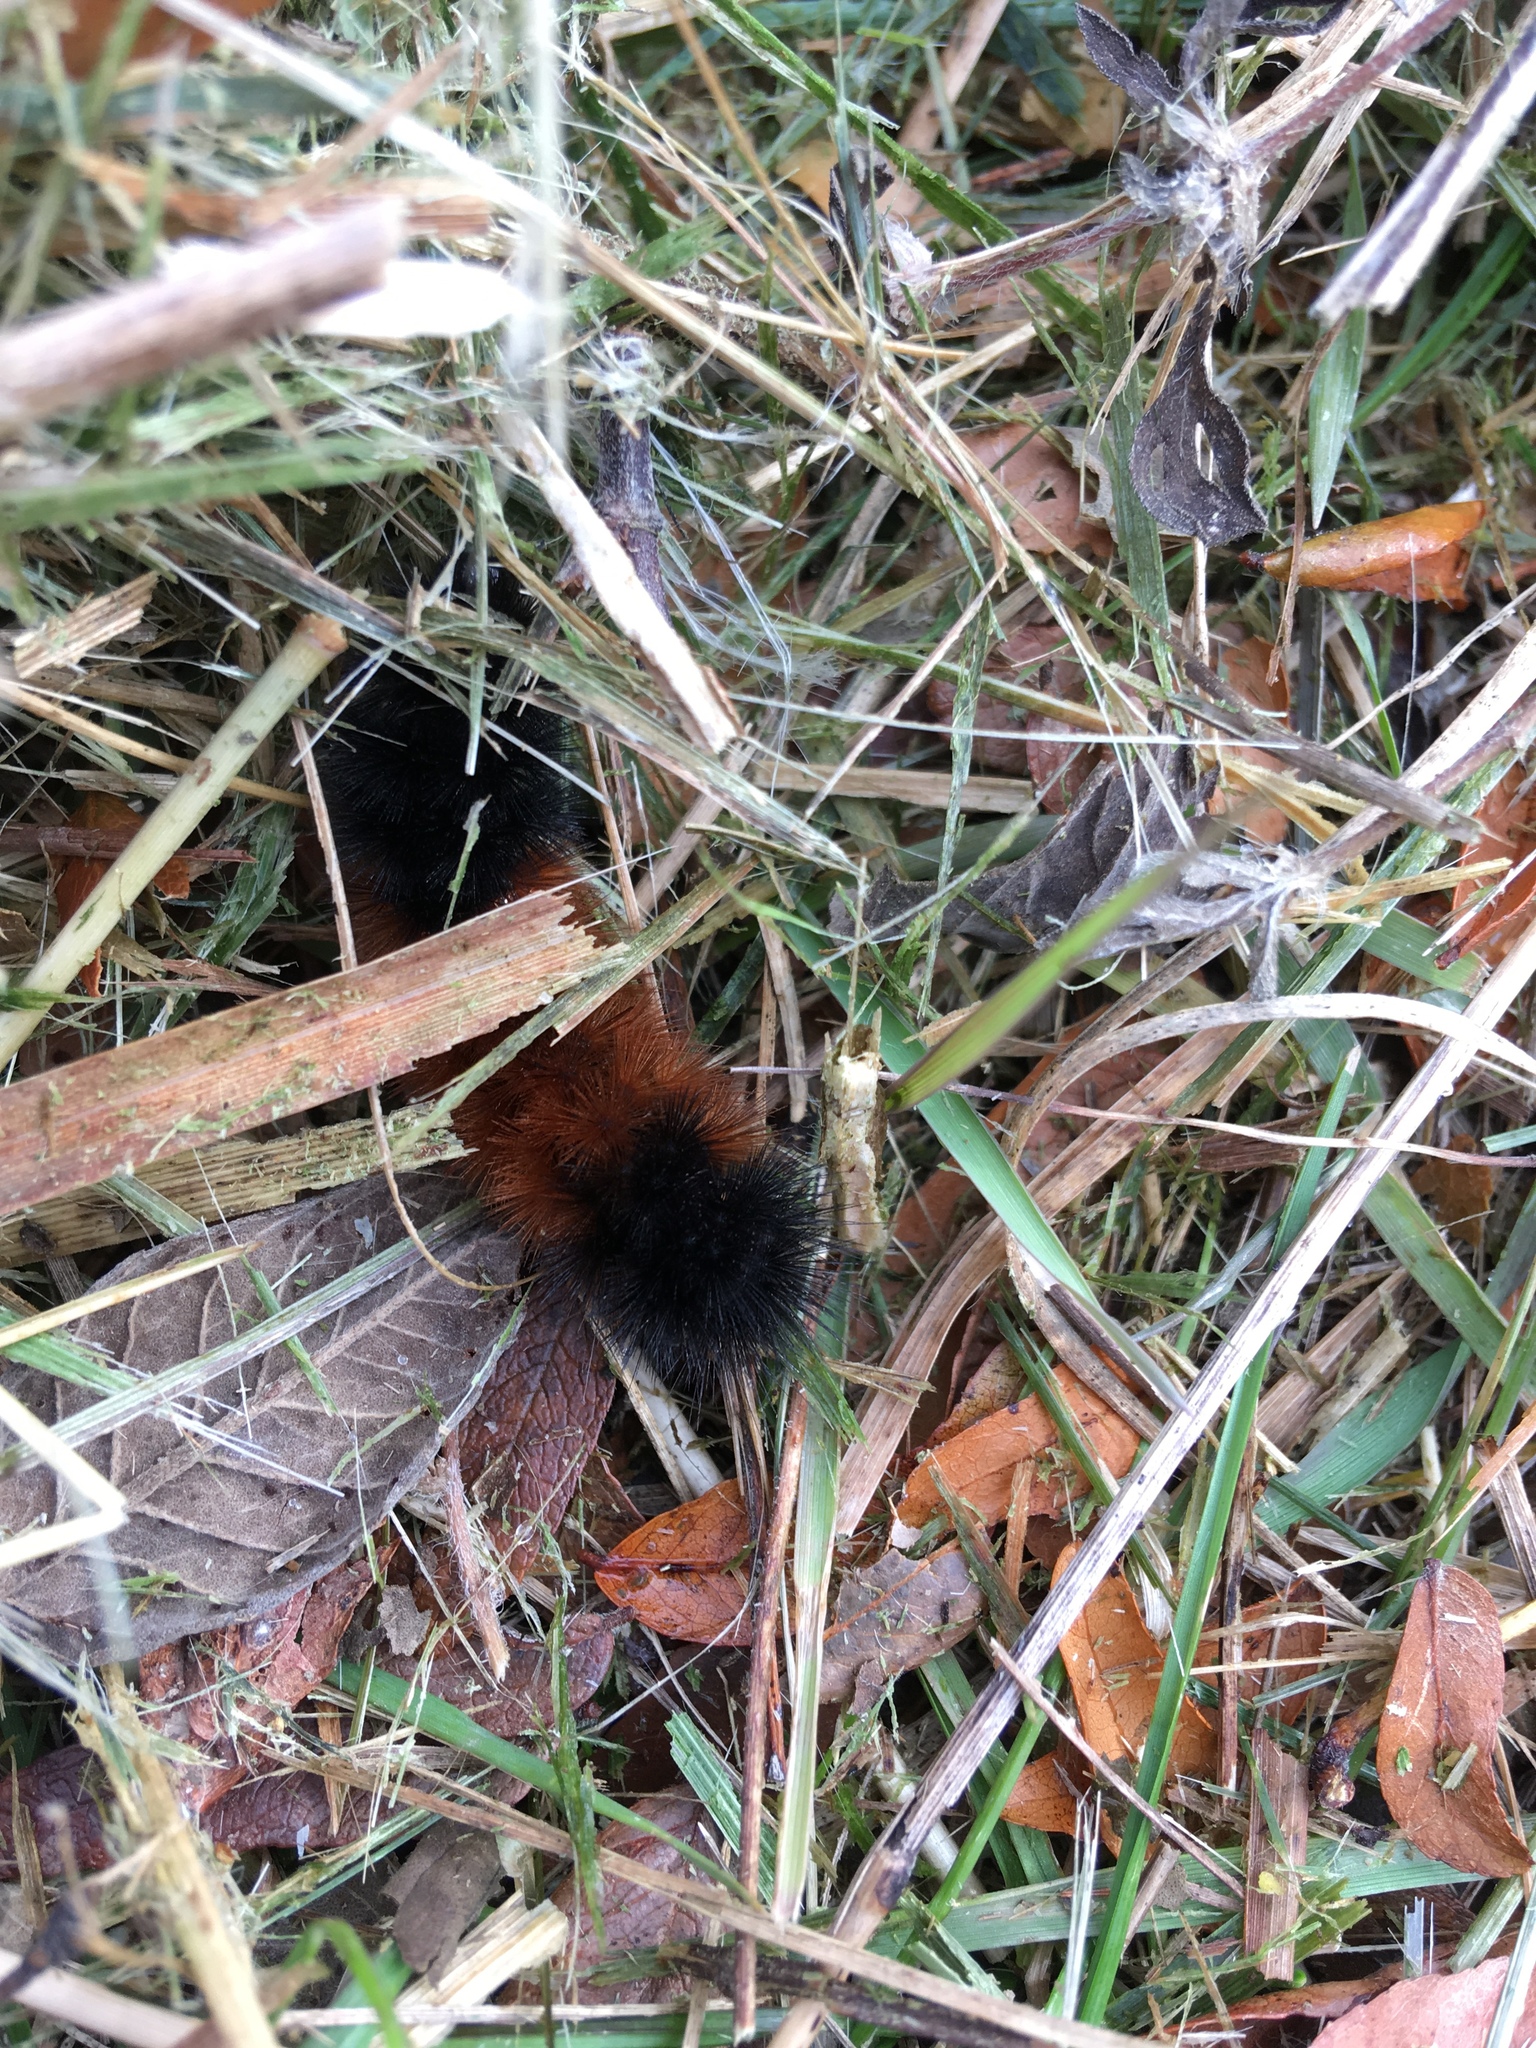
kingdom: Animalia
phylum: Arthropoda
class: Insecta
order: Lepidoptera
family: Erebidae
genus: Pyrrharctia
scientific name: Pyrrharctia isabella
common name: Isabella tiger moth
